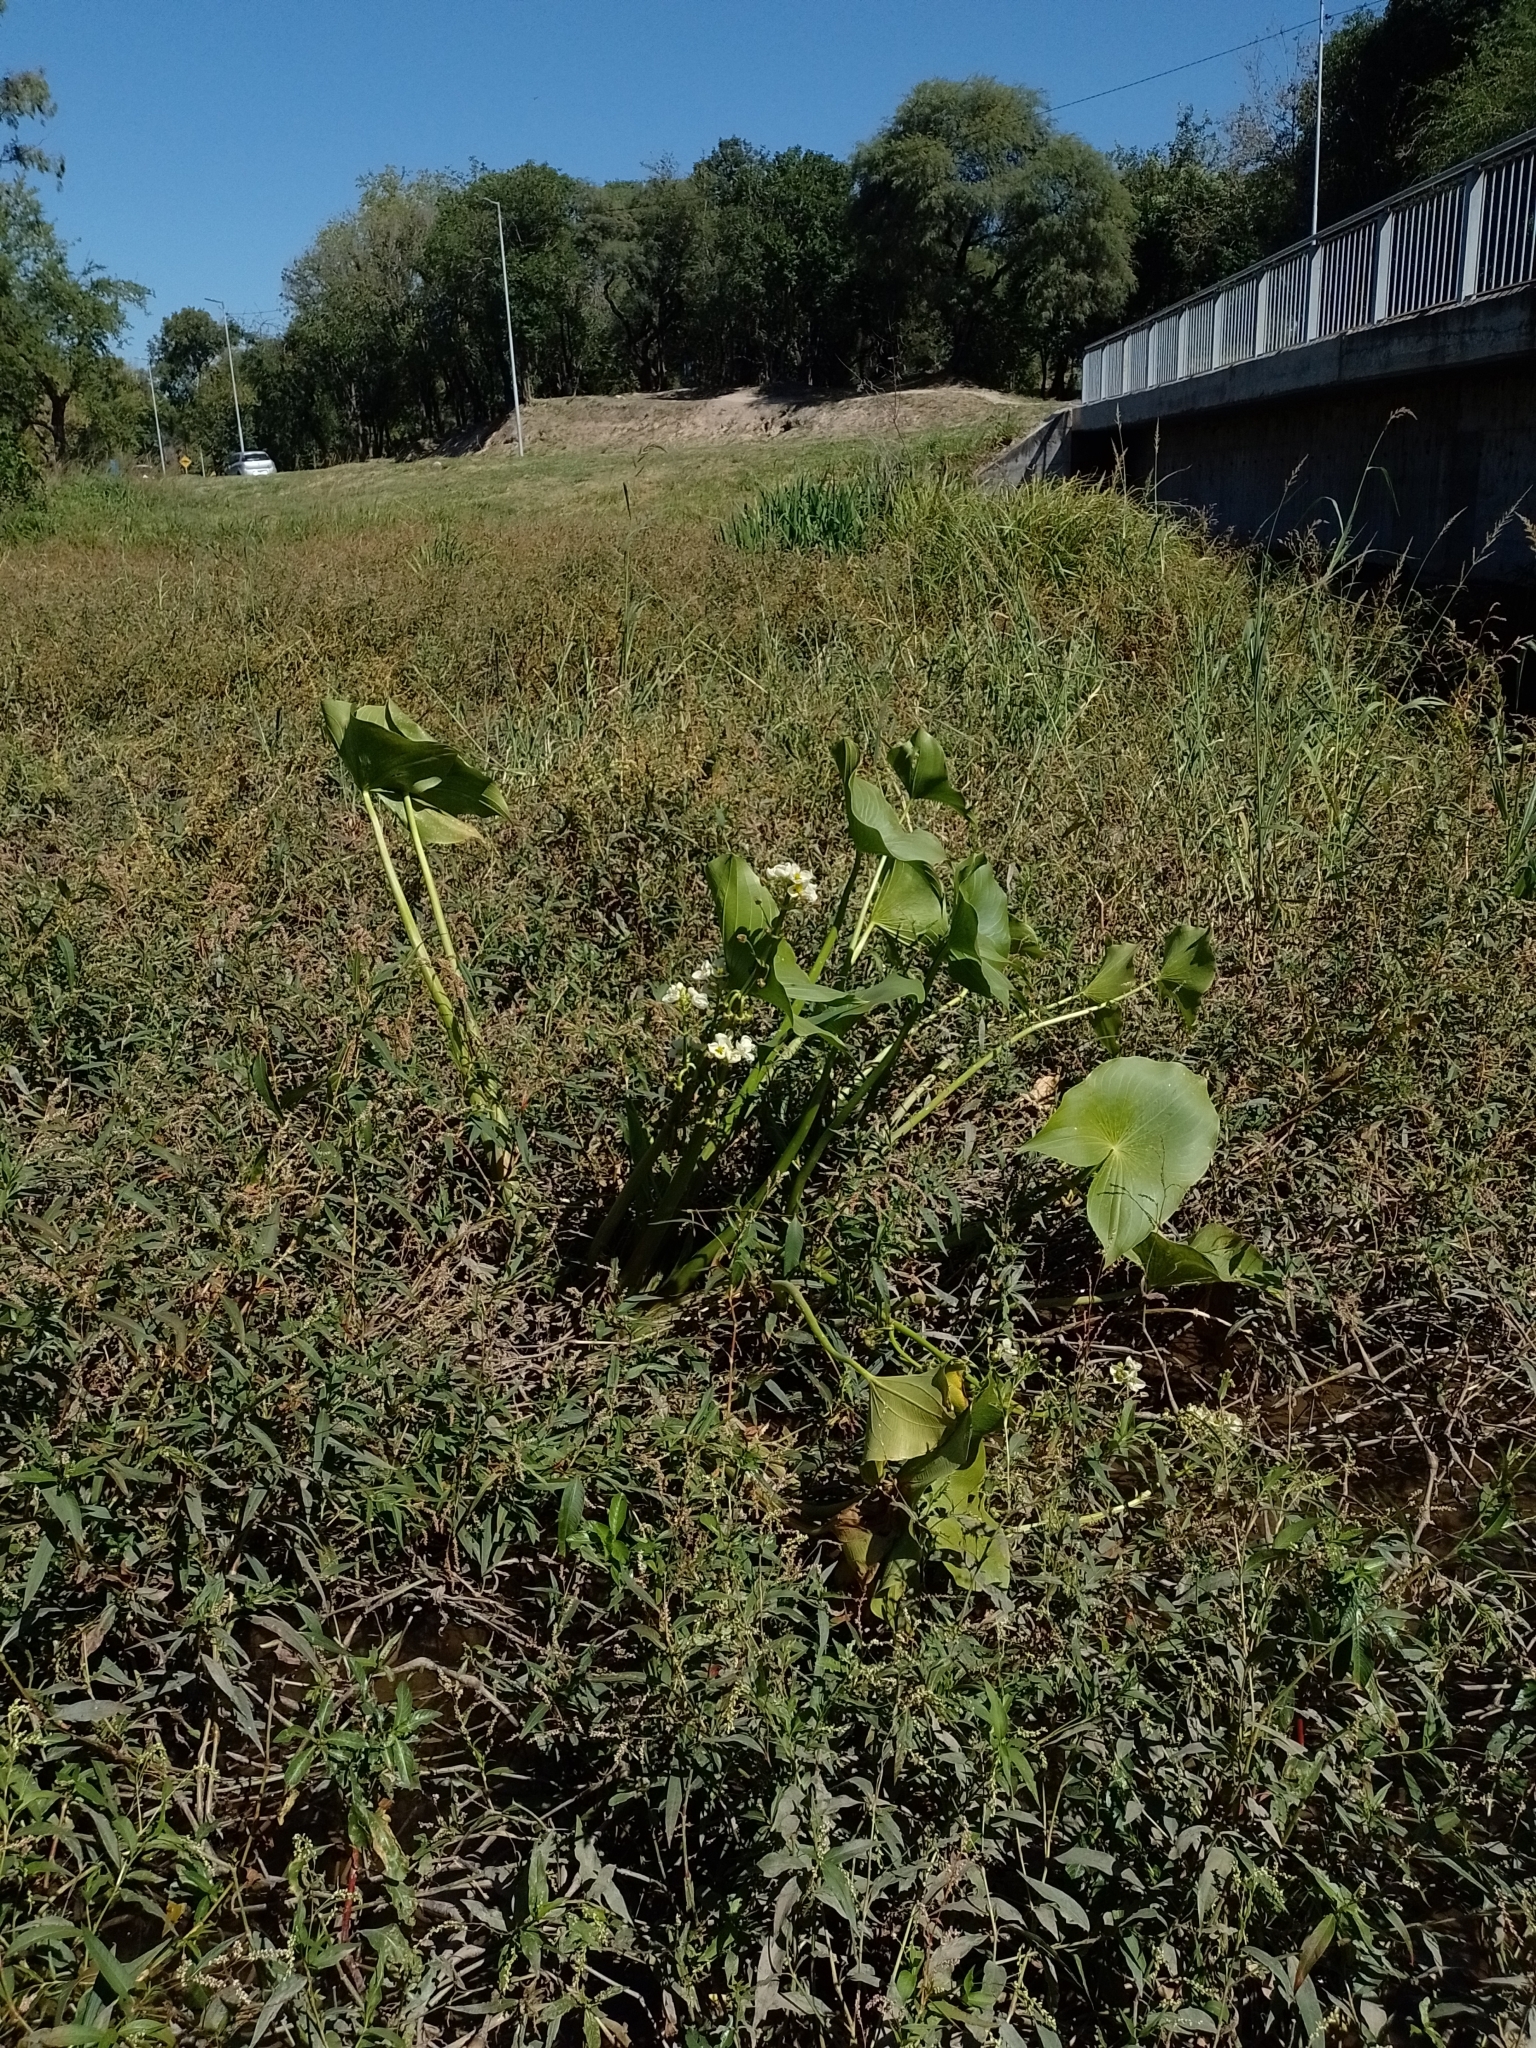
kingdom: Plantae
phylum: Tracheophyta
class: Liliopsida
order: Alismatales
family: Alismataceae
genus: Sagittaria
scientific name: Sagittaria montevidensis
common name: Giant arrowhead
